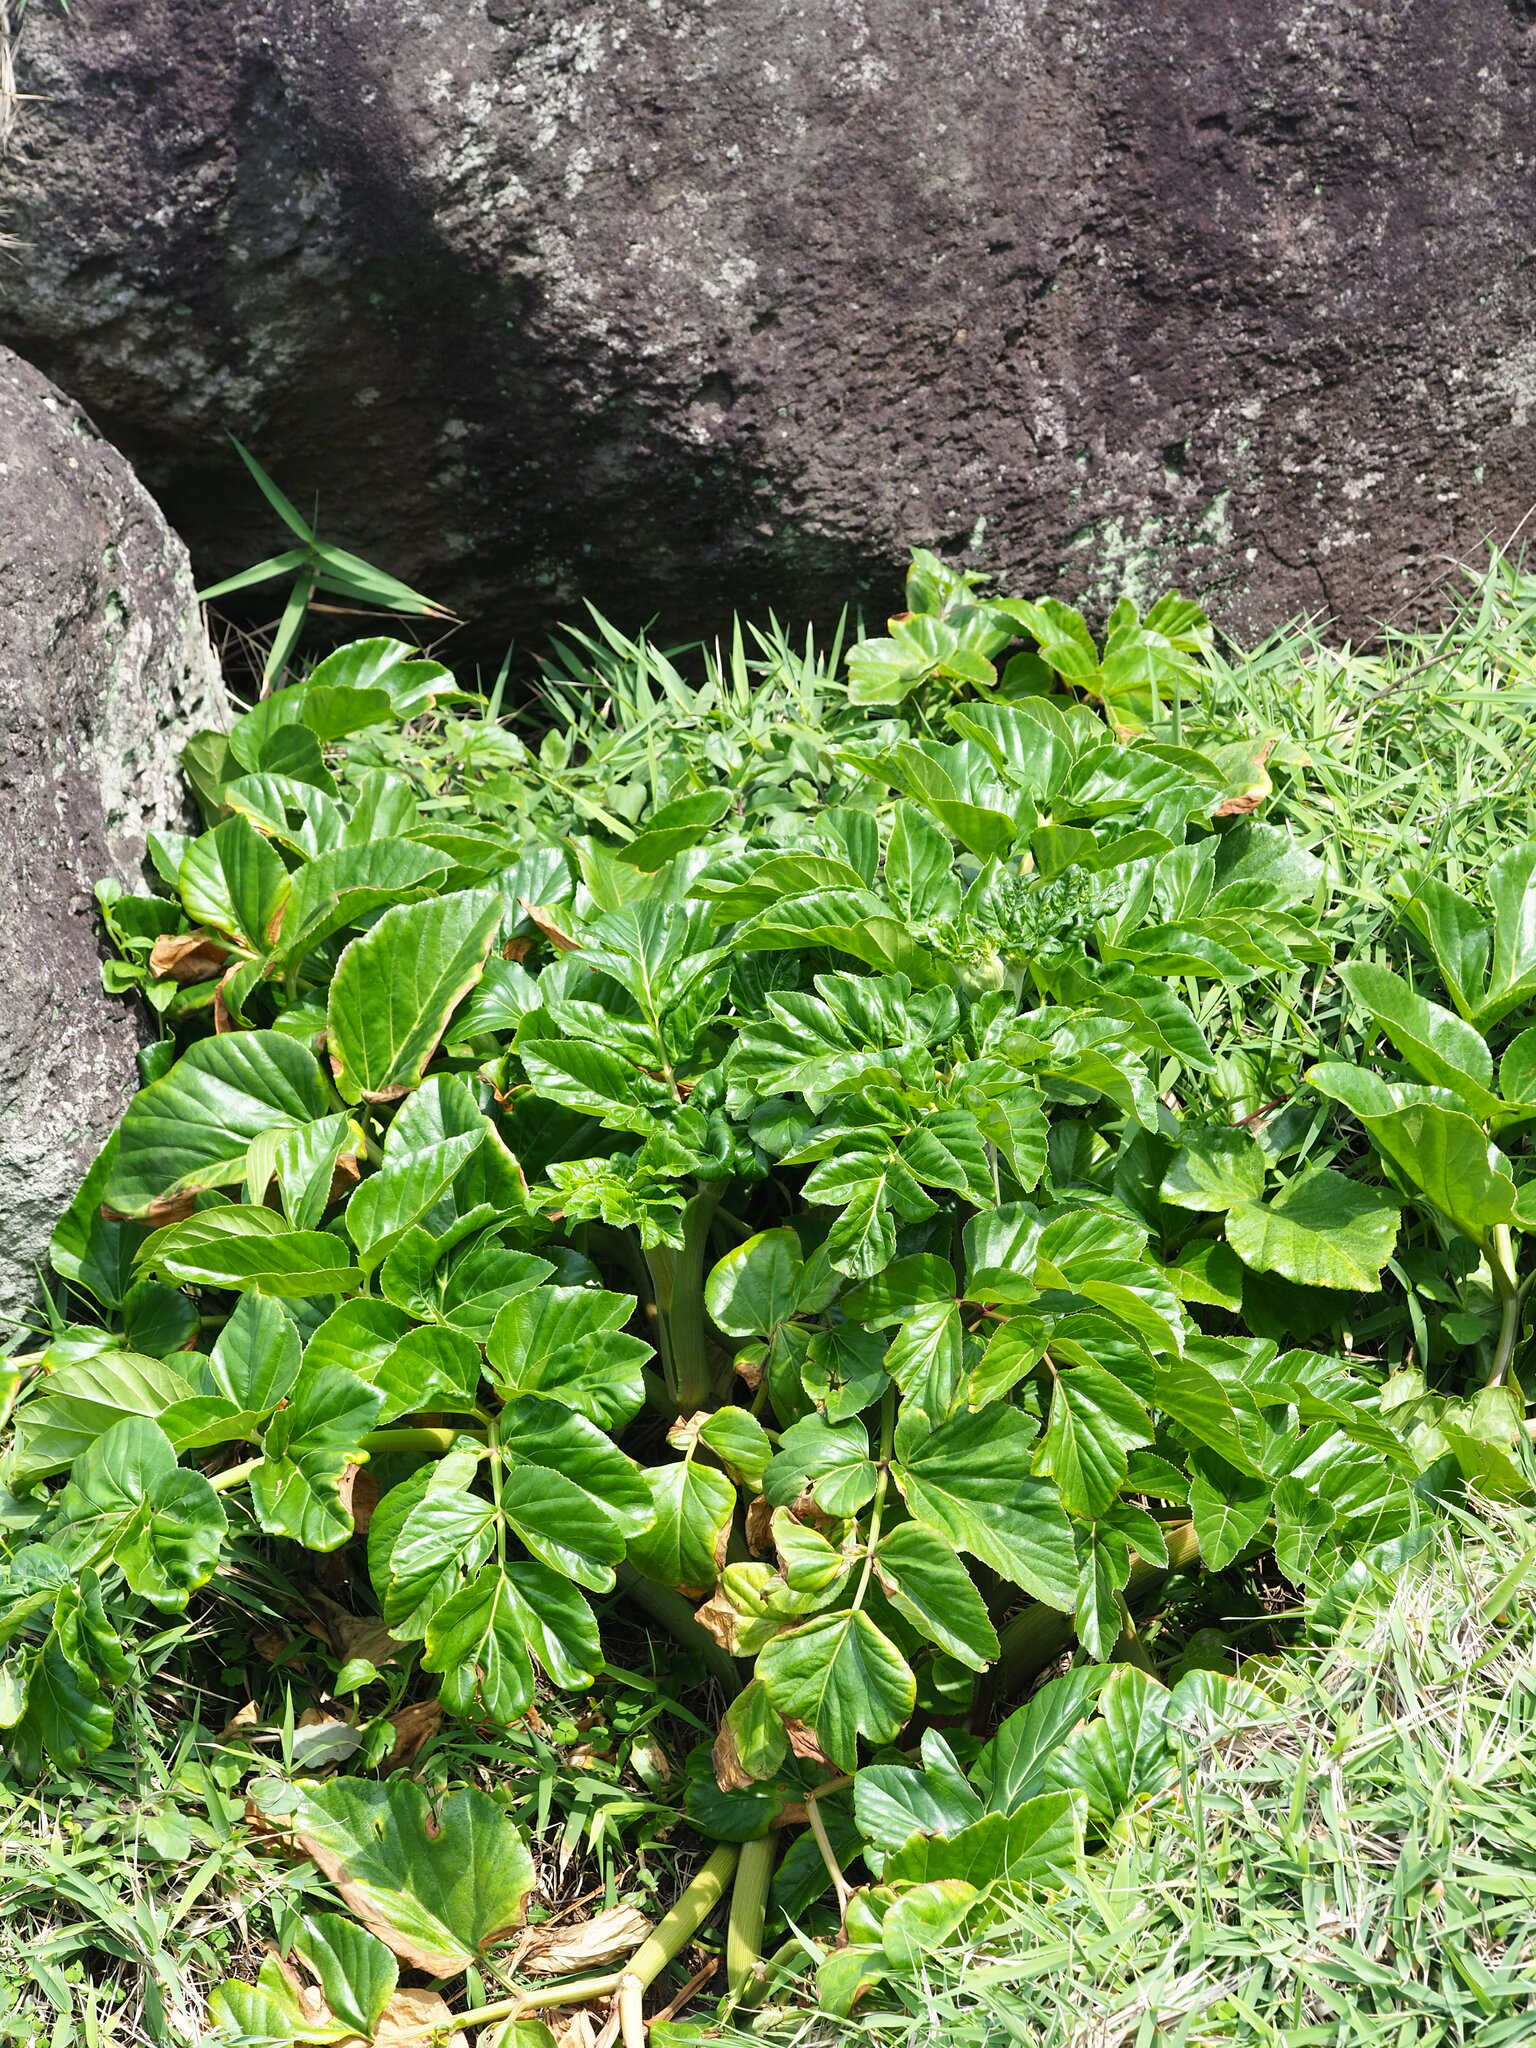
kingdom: Plantae
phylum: Tracheophyta
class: Magnoliopsida
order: Apiales
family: Apiaceae
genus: Angelica
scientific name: Angelica hirsutiflora
